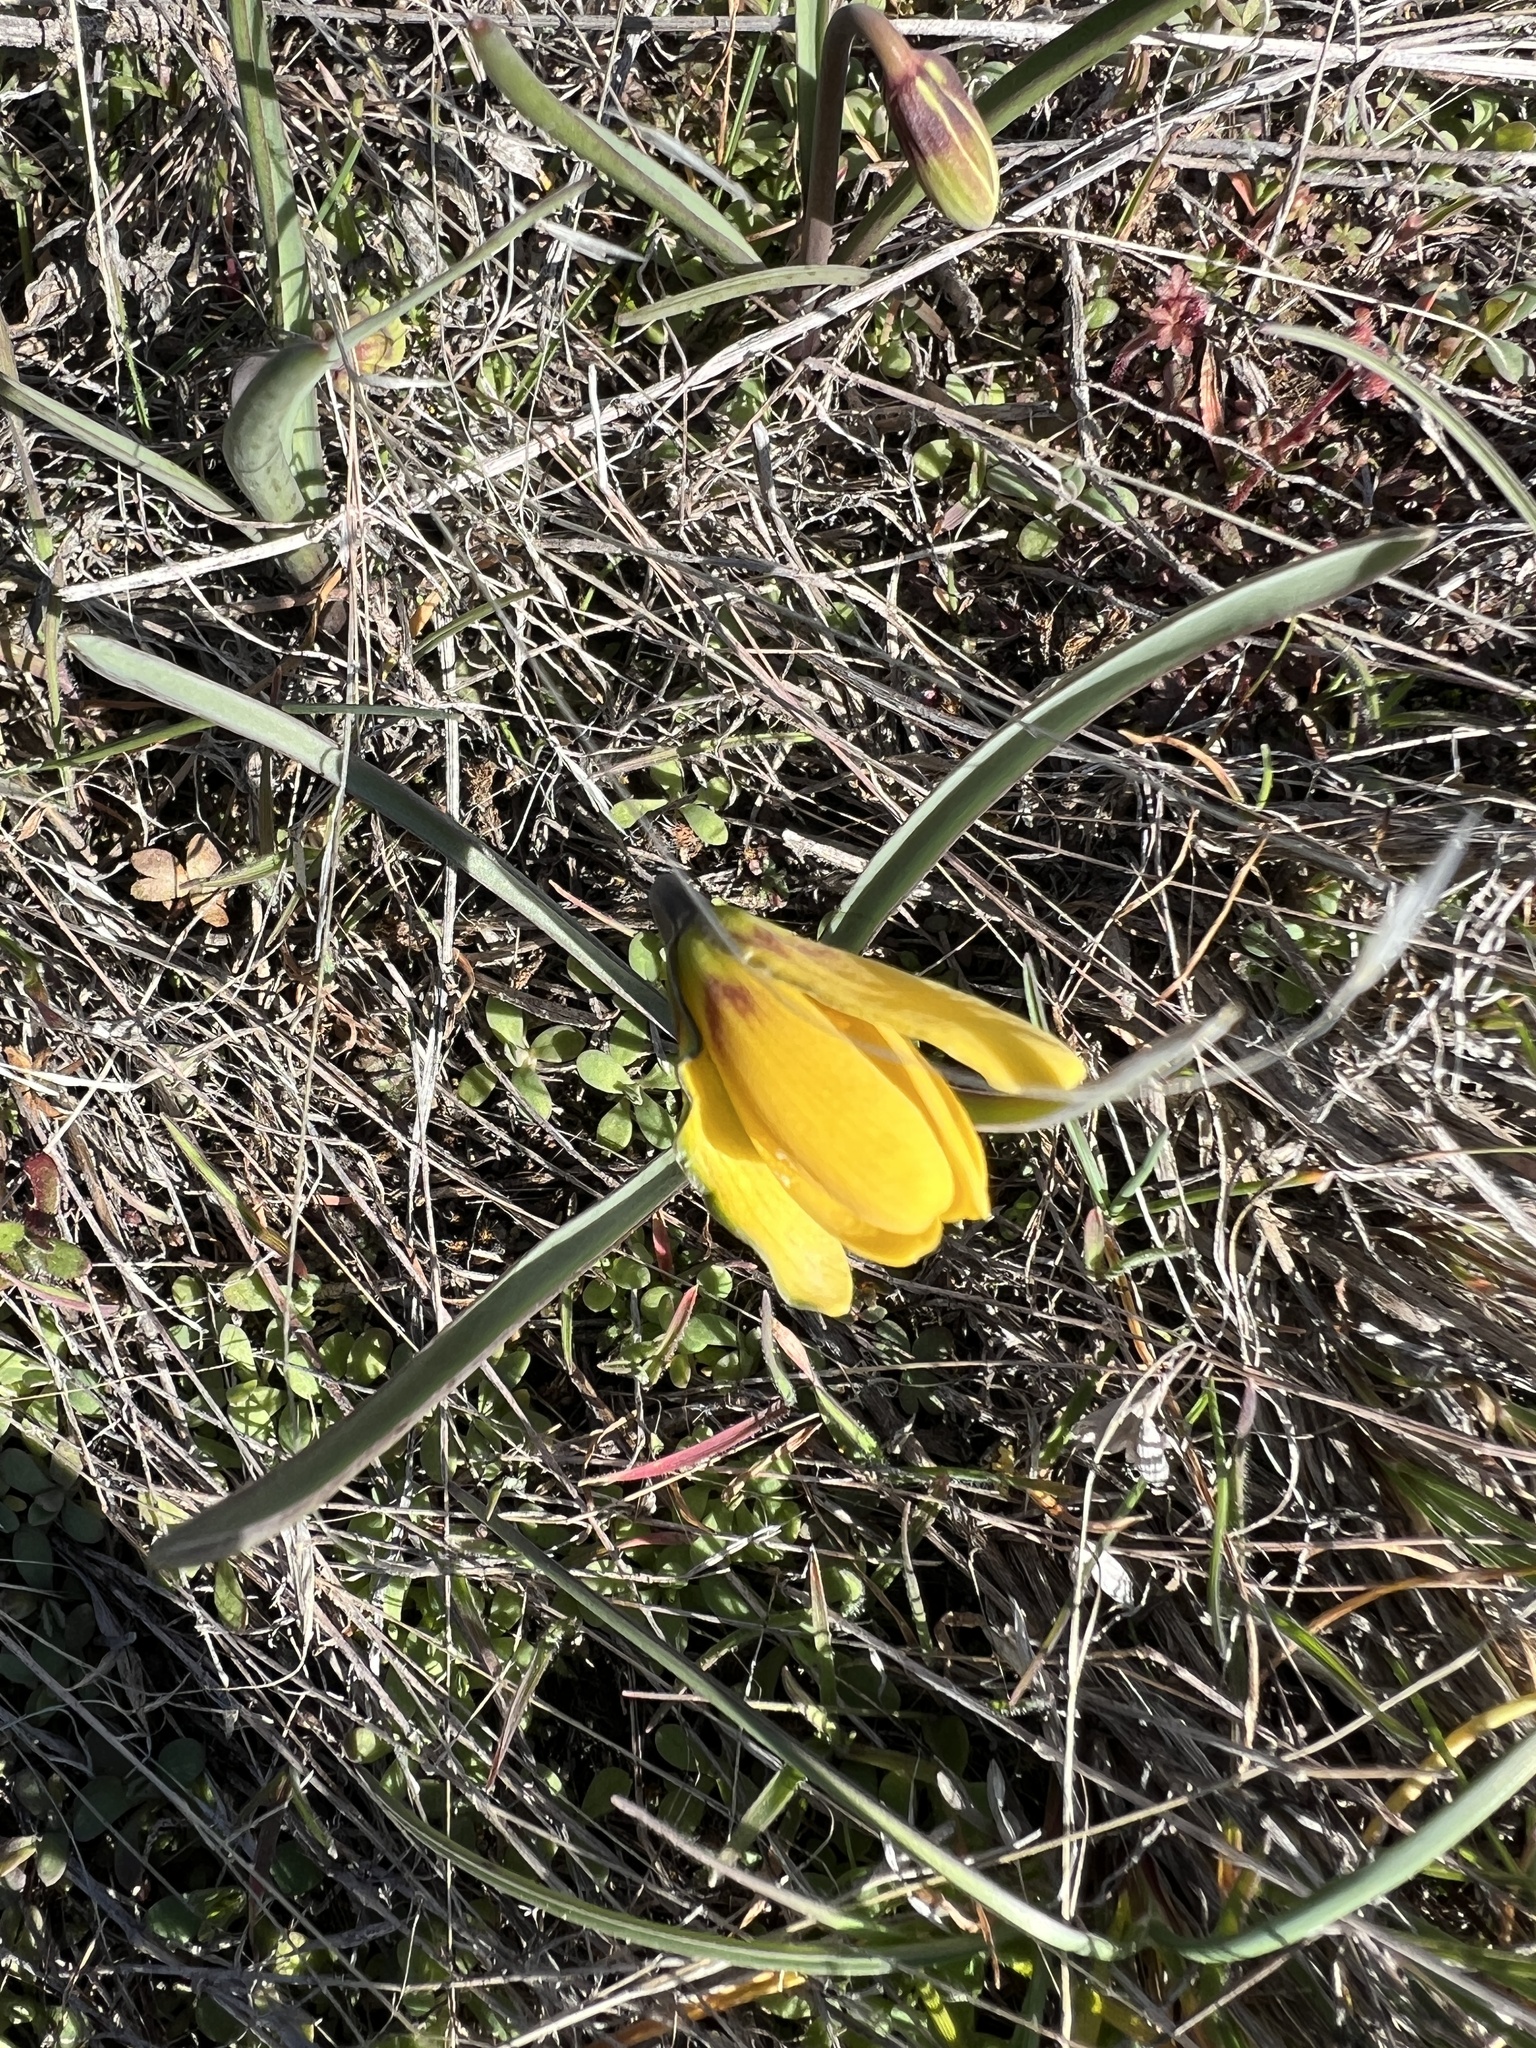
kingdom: Plantae
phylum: Tracheophyta
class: Liliopsida
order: Liliales
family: Liliaceae
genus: Fritillaria
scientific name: Fritillaria pudica
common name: Yellow fritillary
